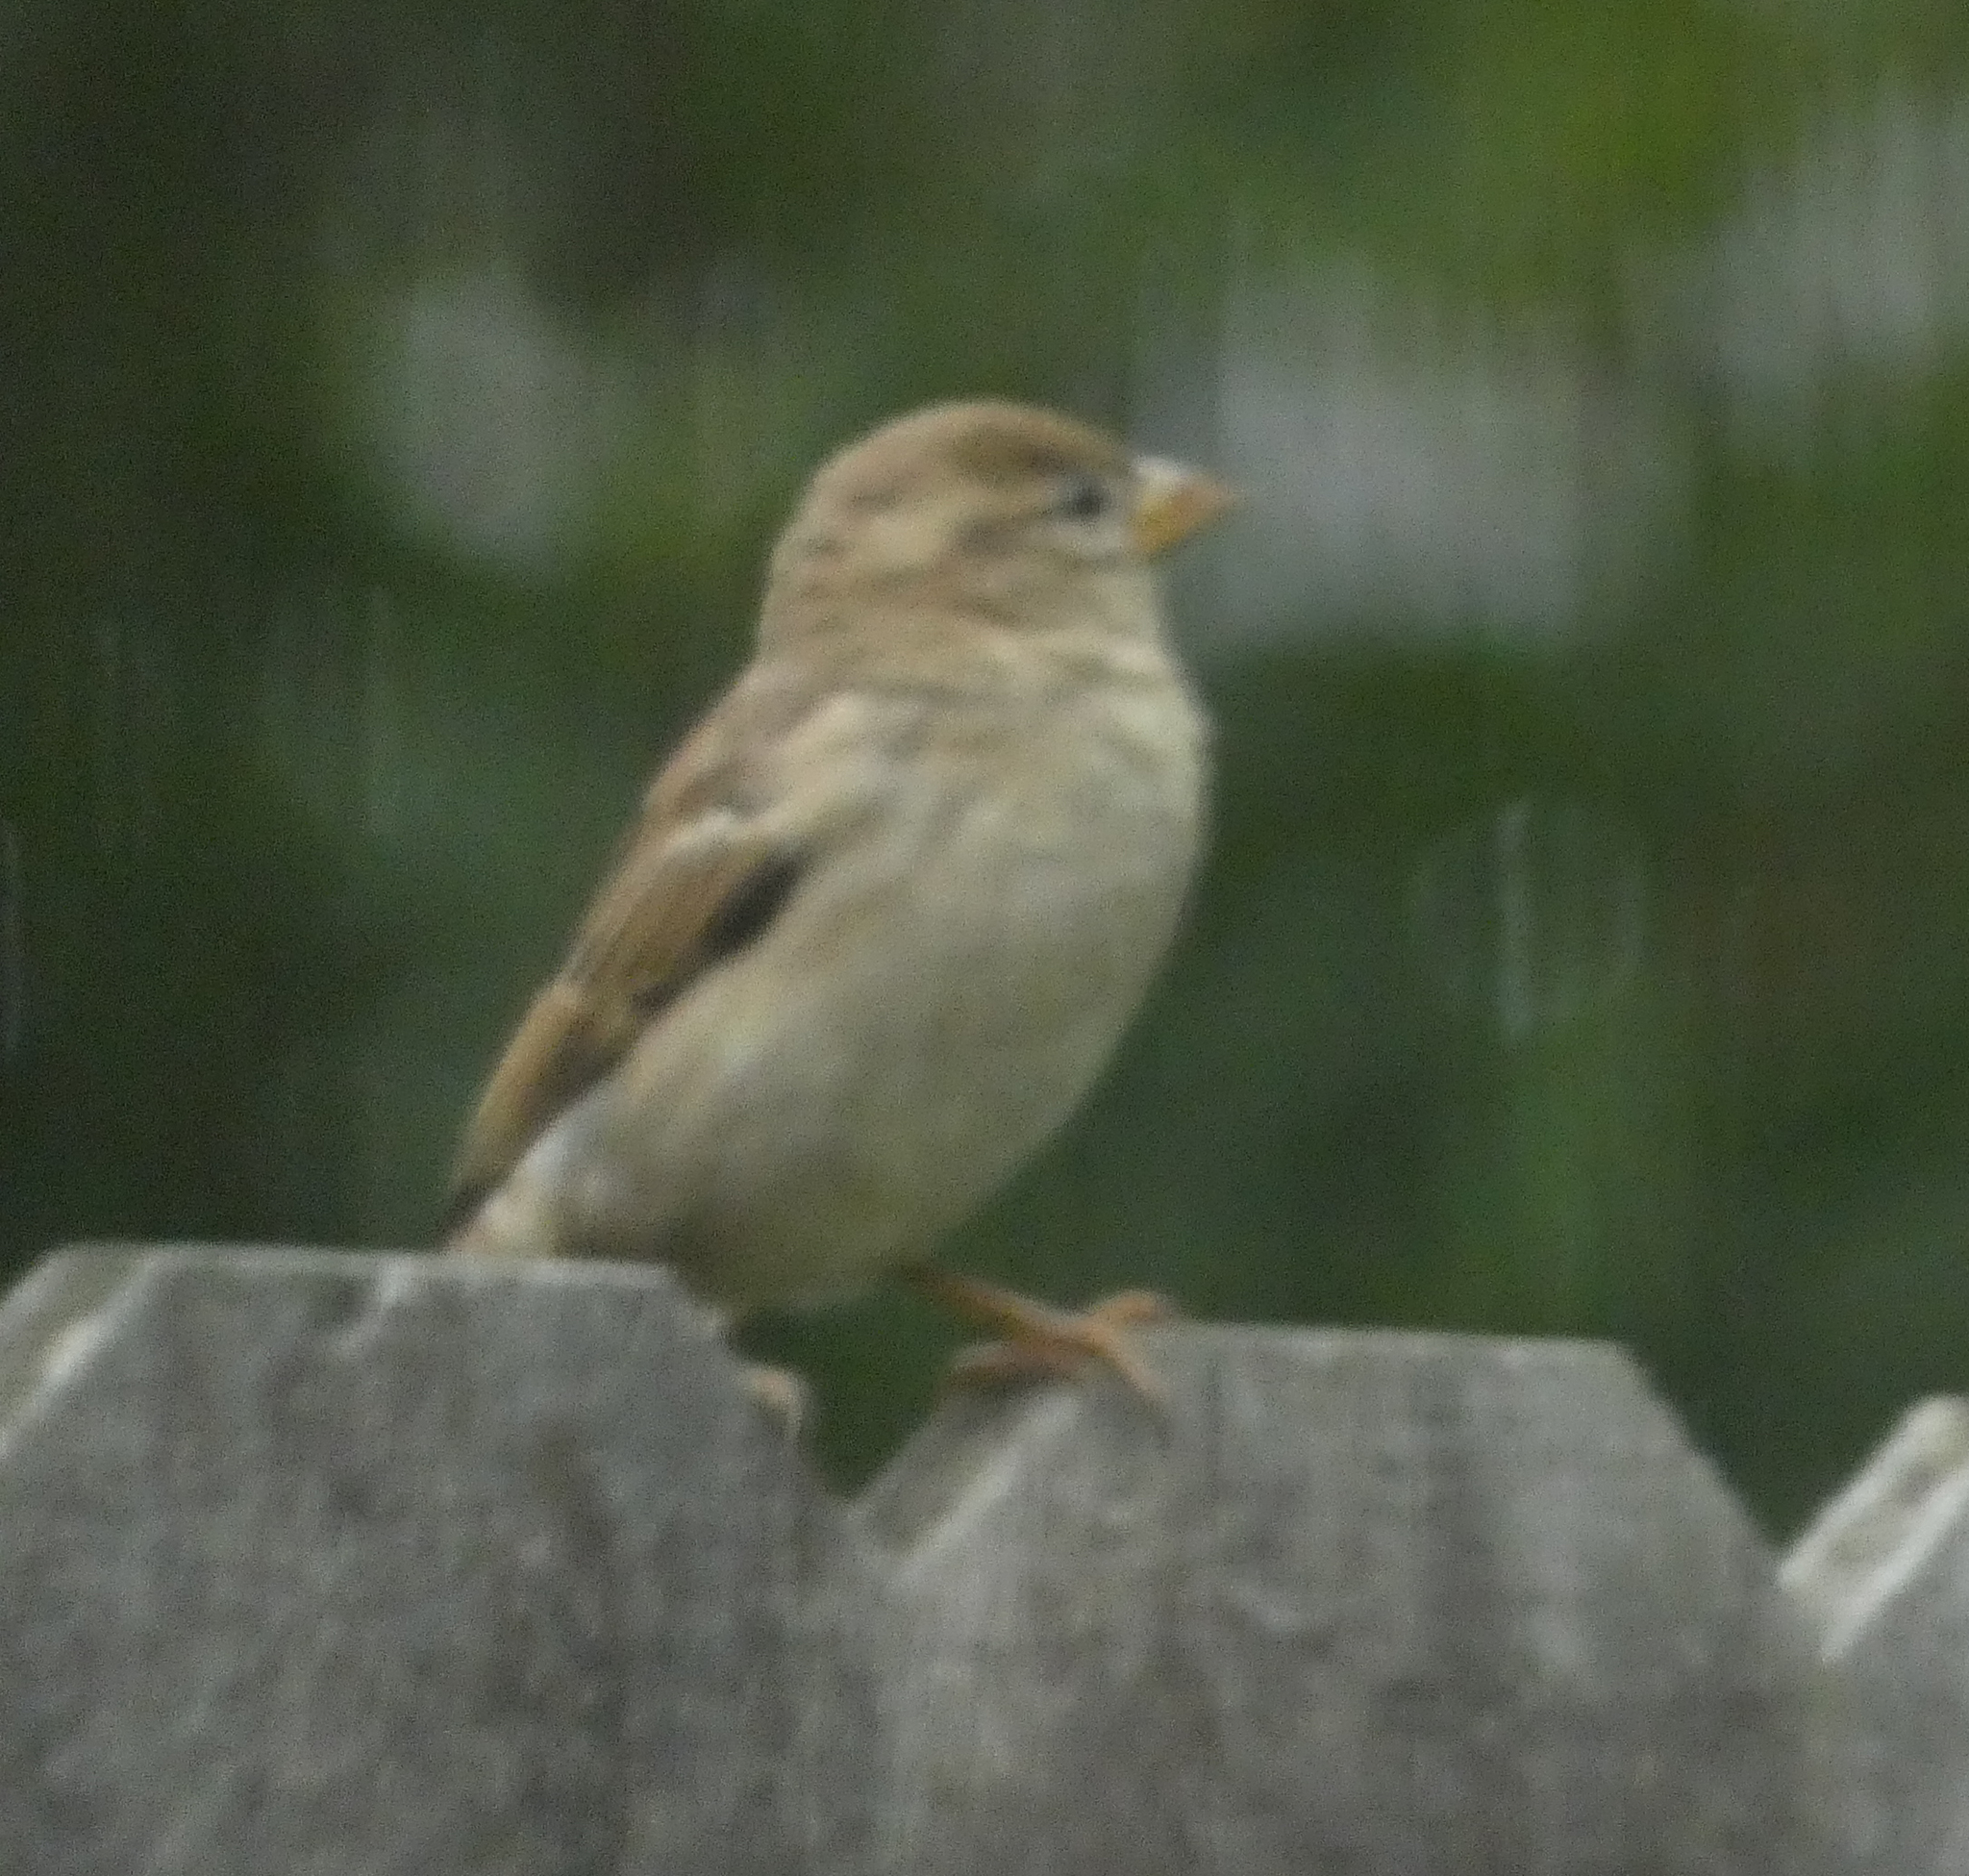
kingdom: Animalia
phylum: Chordata
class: Aves
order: Passeriformes
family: Passeridae
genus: Passer
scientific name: Passer domesticus
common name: House sparrow
